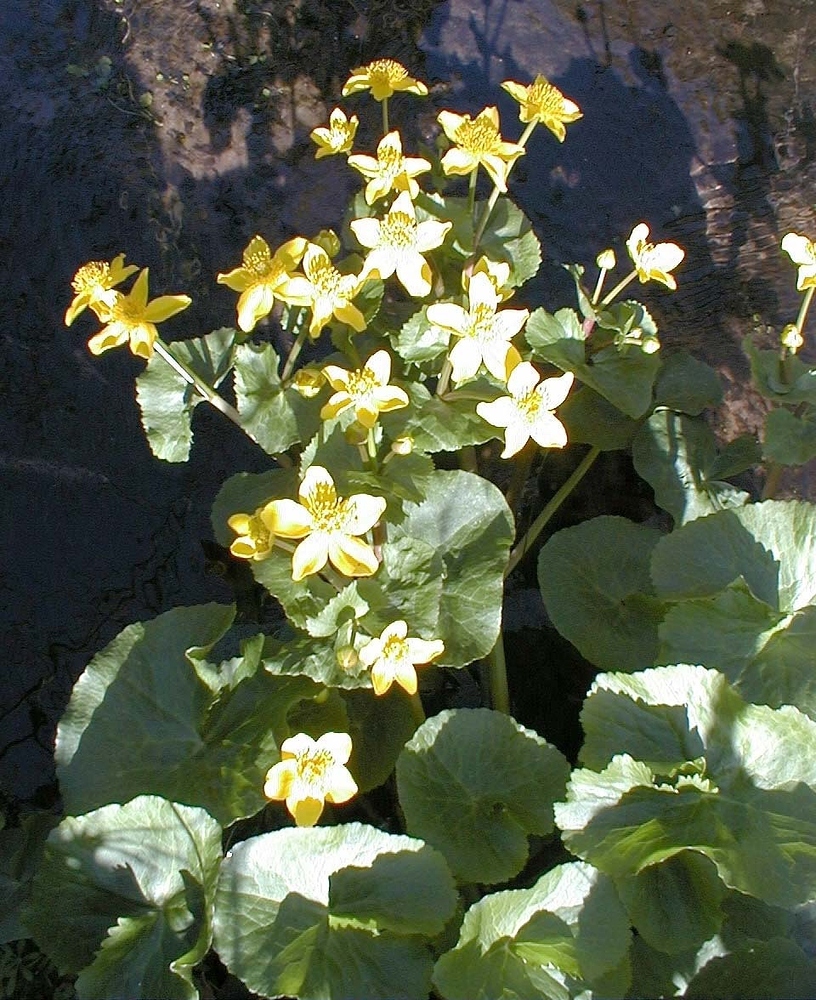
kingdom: Plantae
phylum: Tracheophyta
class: Magnoliopsida
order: Ranunculales
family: Ranunculaceae
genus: Caltha
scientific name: Caltha palustris
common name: Marsh marigold
